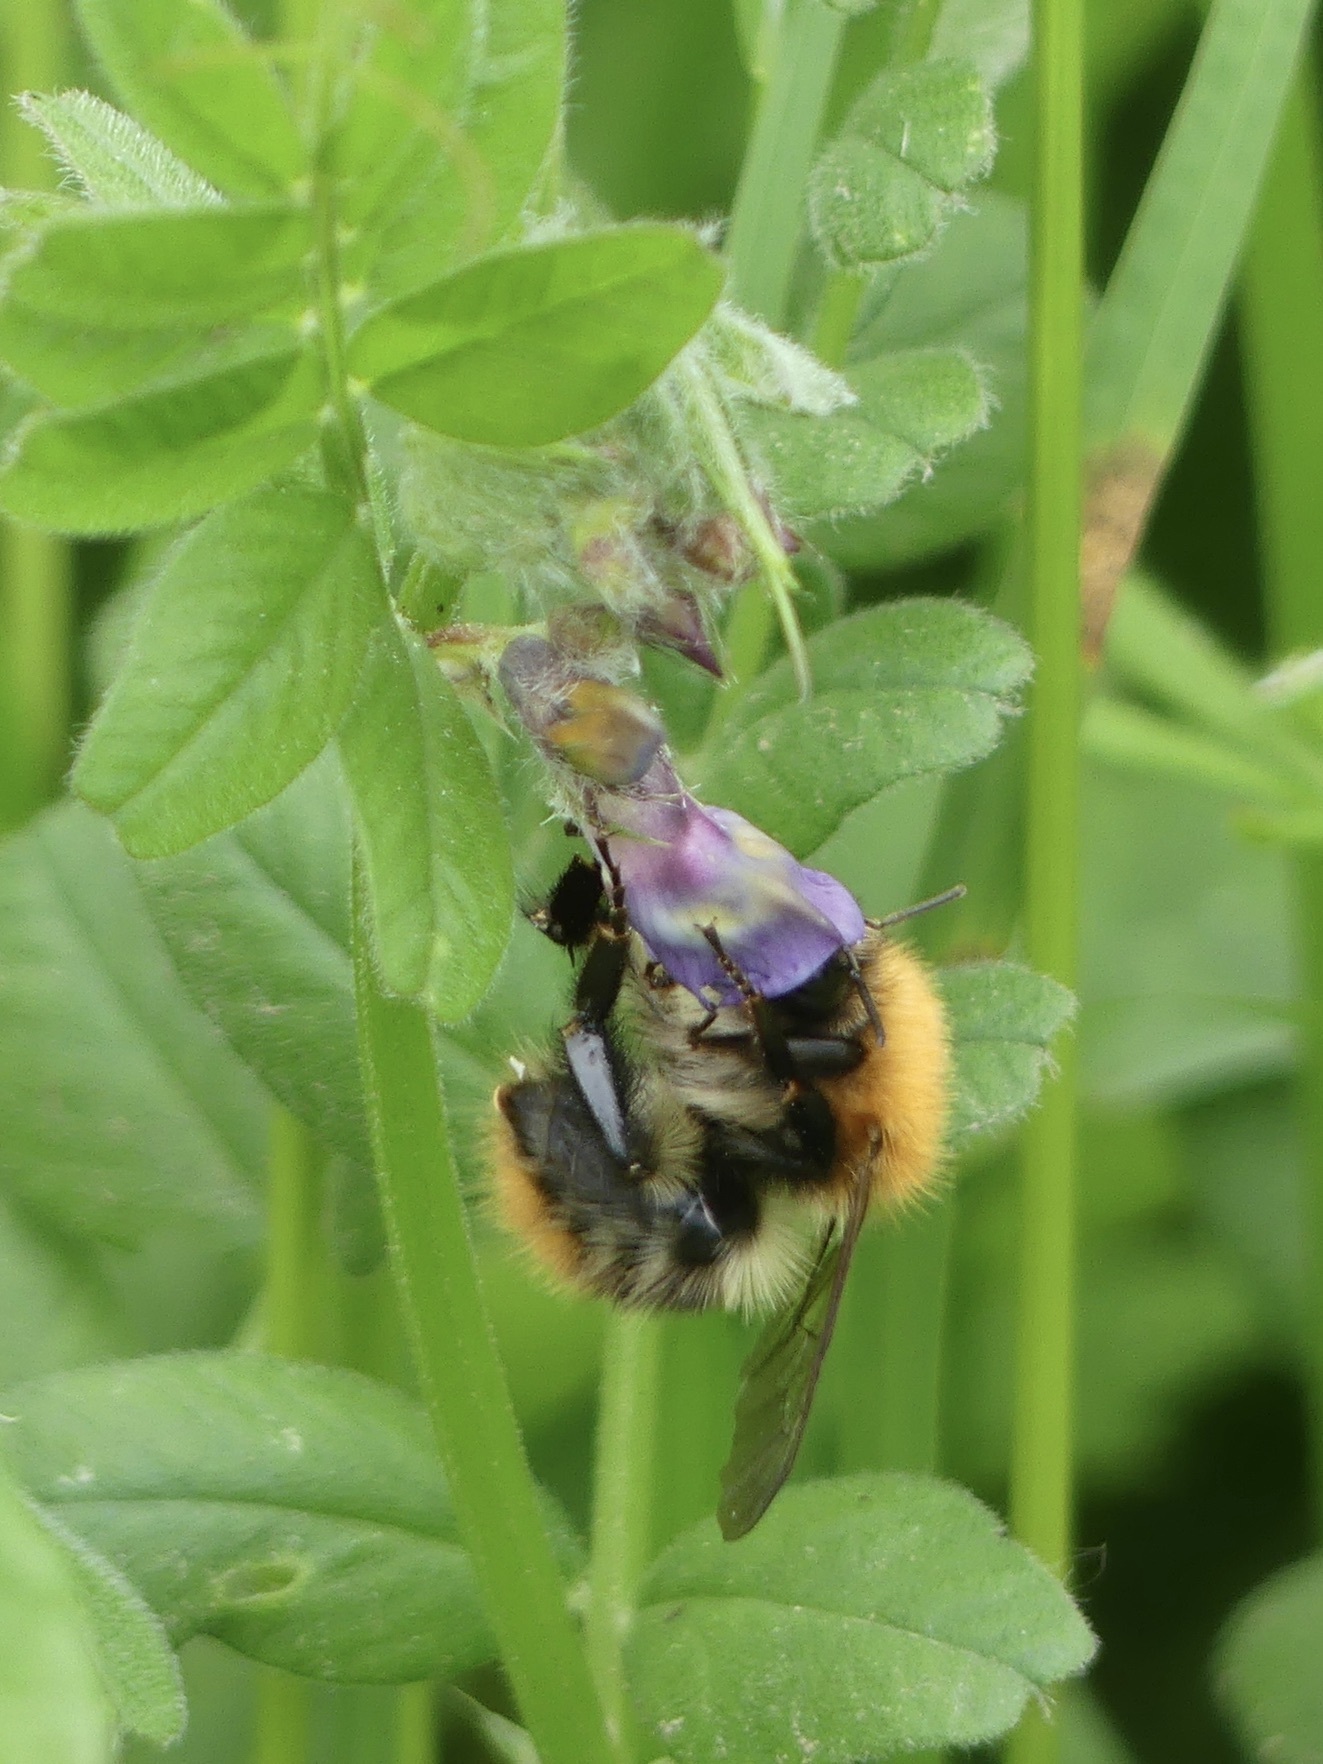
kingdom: Animalia
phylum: Arthropoda
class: Insecta
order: Hymenoptera
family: Apidae
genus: Bombus
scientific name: Bombus pascuorum
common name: Common carder bee
